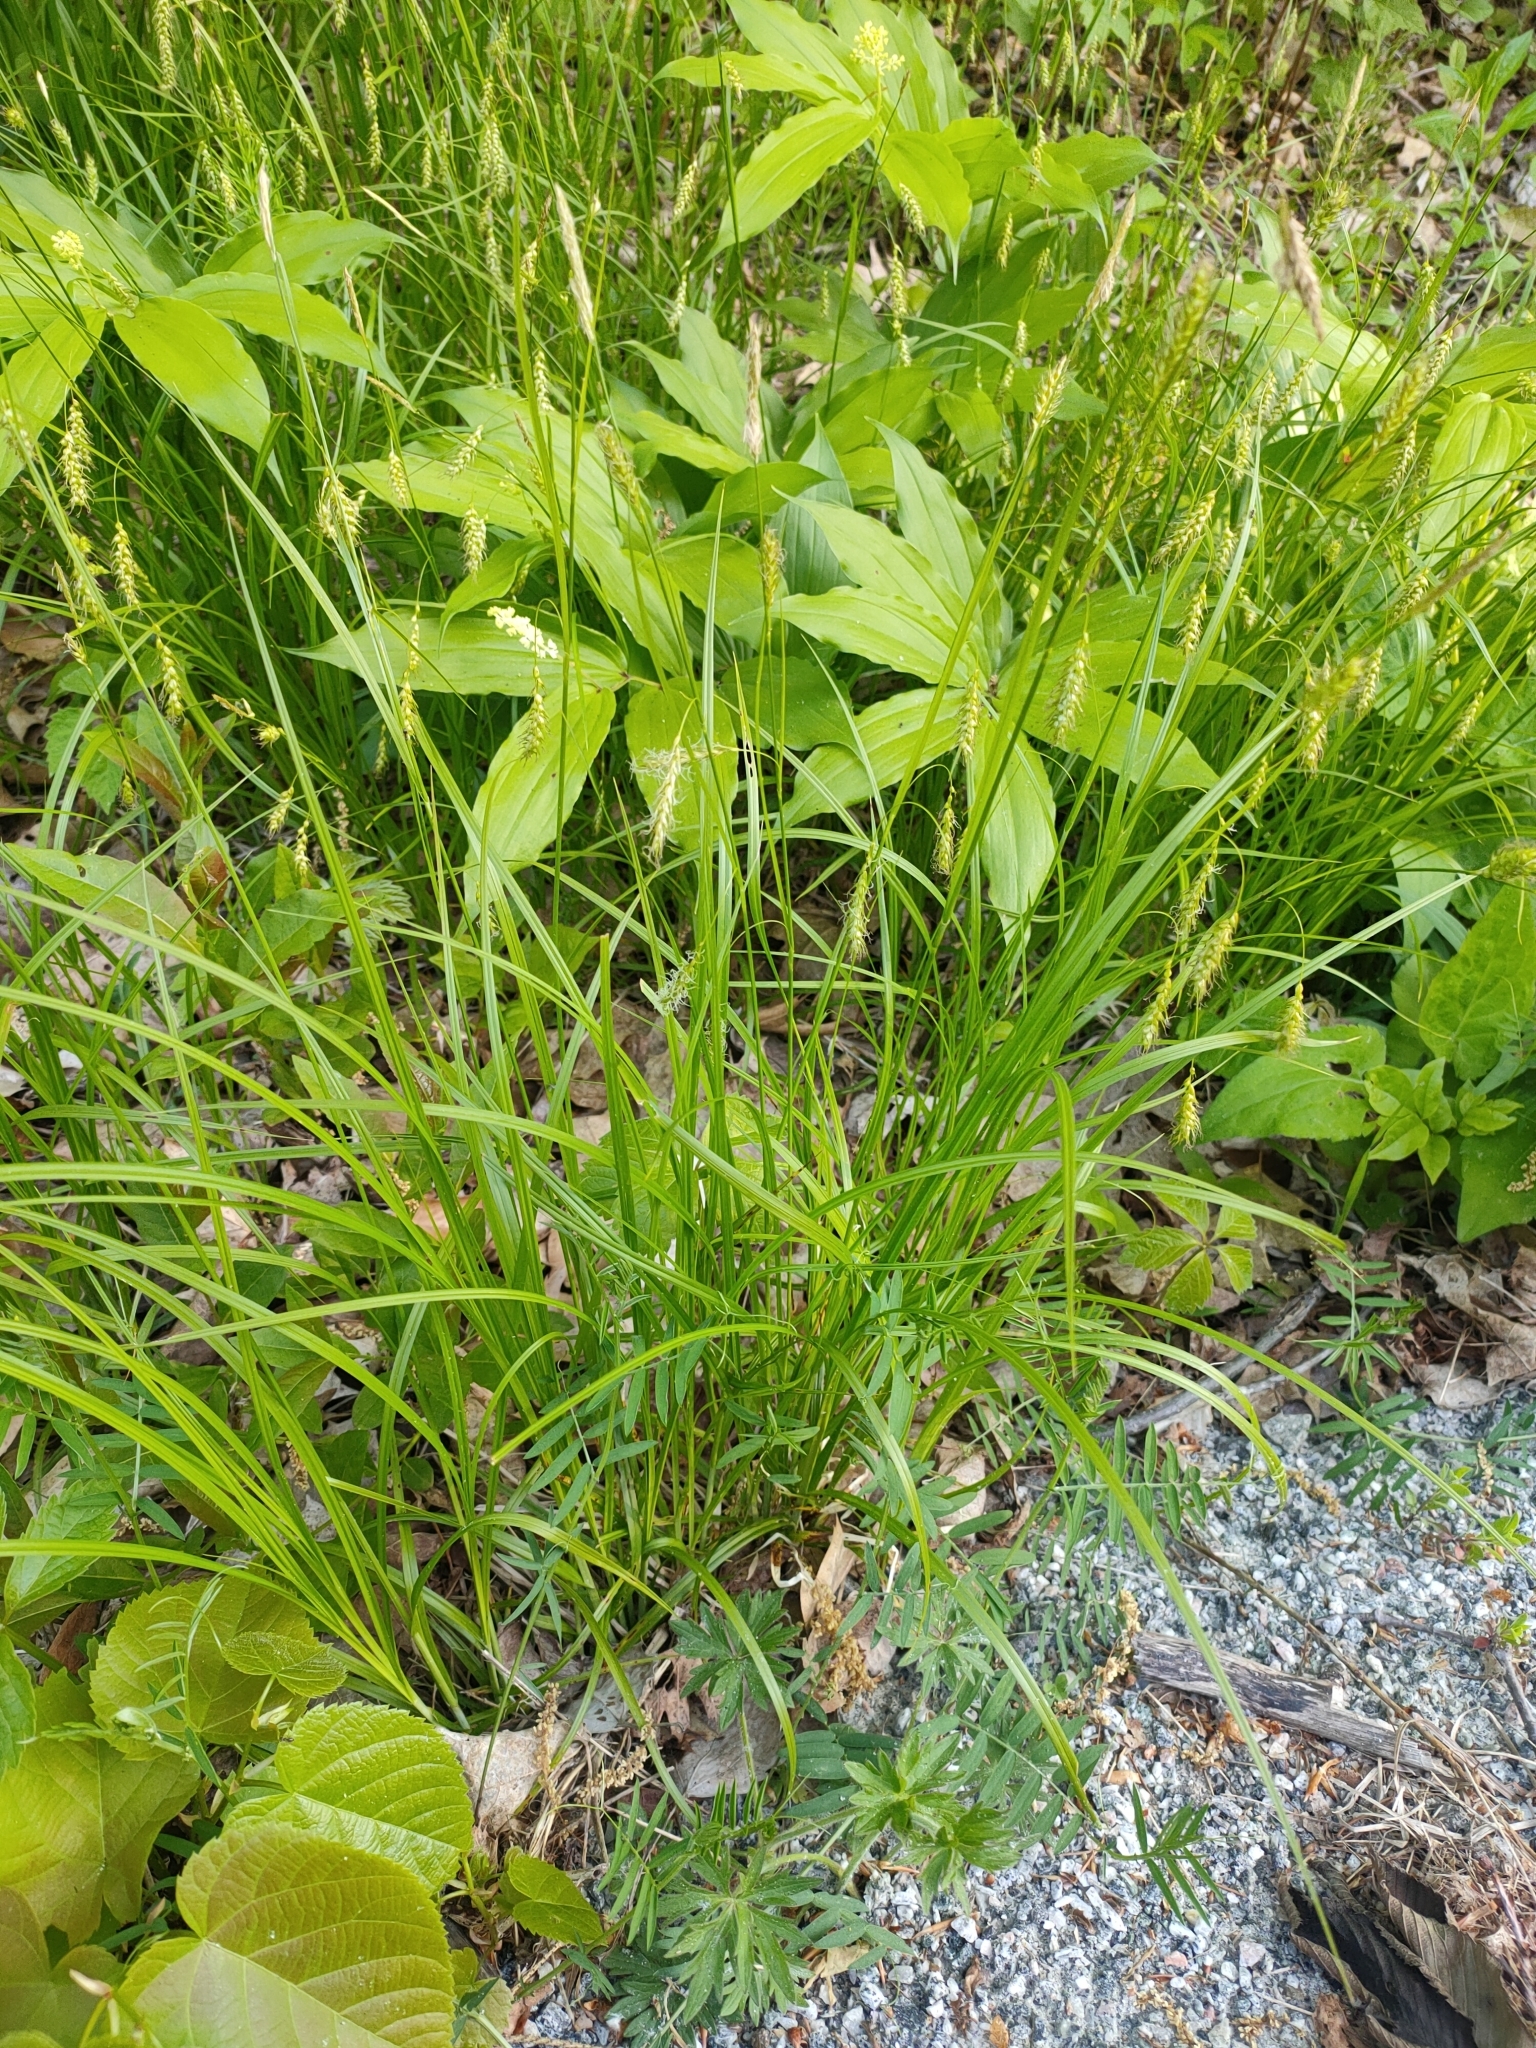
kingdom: Plantae
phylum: Tracheophyta
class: Liliopsida
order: Poales
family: Cyperaceae
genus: Carex
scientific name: Carex sprengelii
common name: Long-beaked sedge
